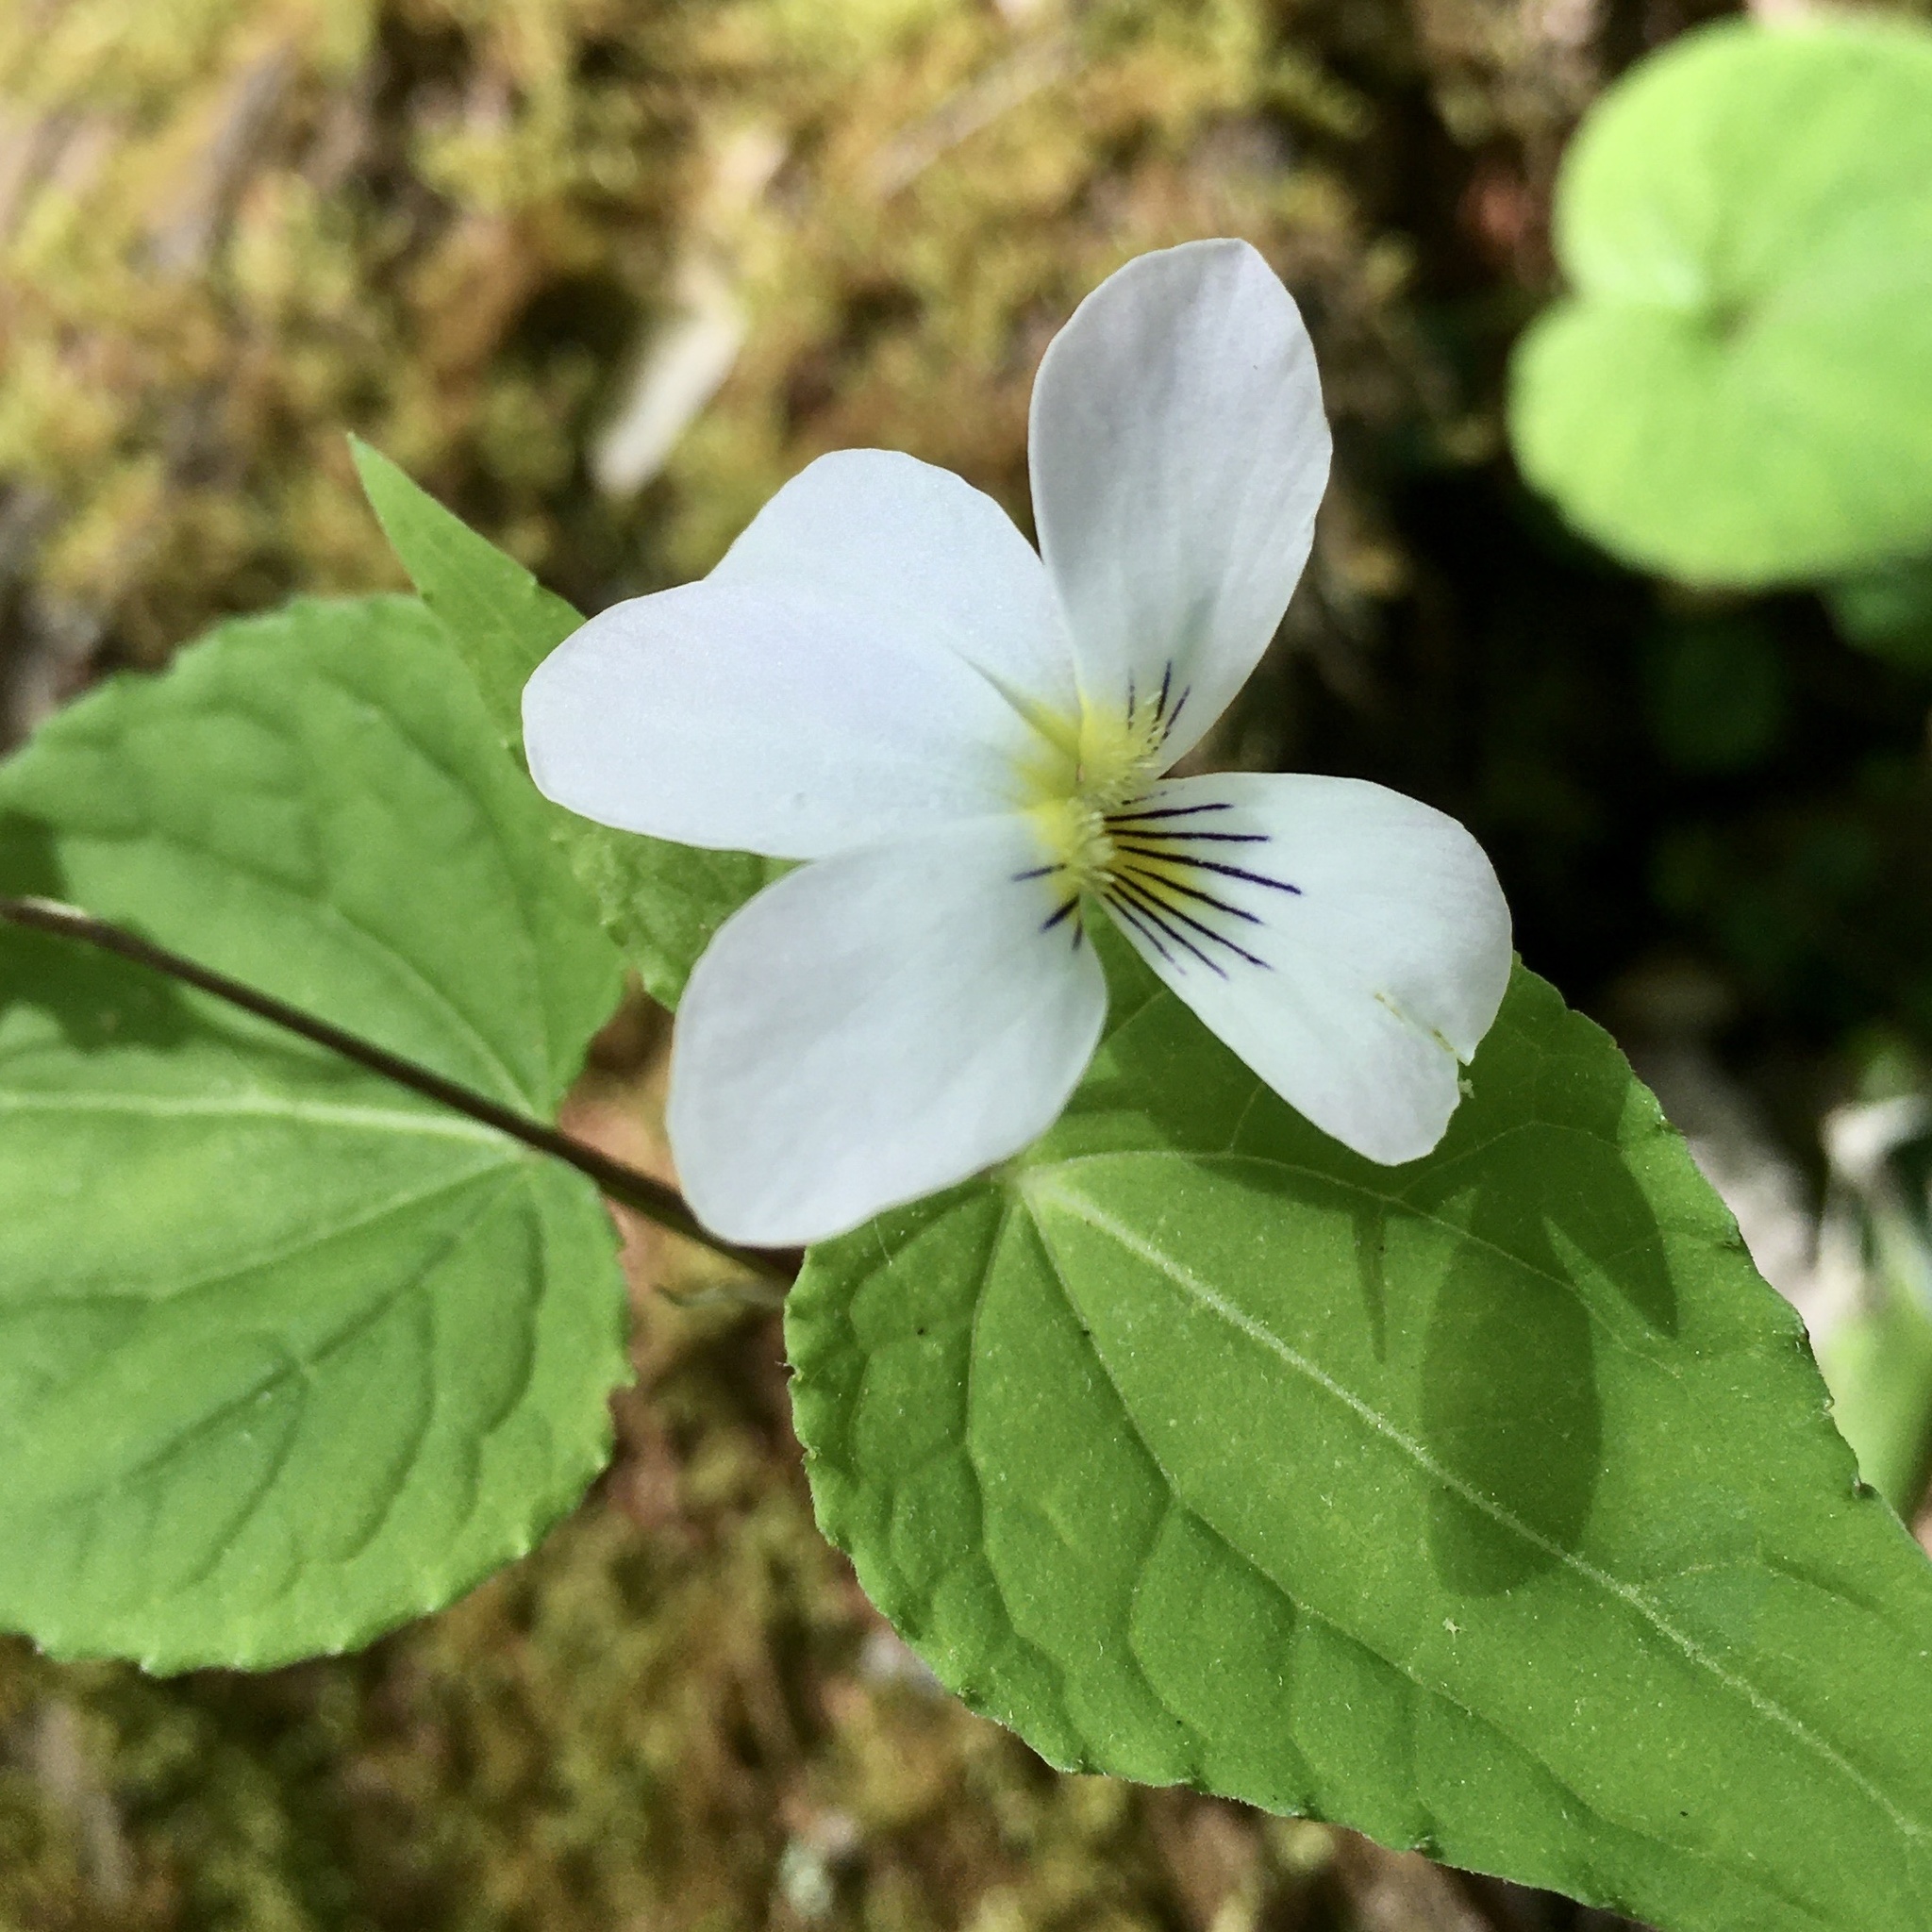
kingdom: Plantae
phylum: Tracheophyta
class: Magnoliopsida
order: Malpighiales
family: Violaceae
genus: Viola
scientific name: Viola canadensis
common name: Canada violet
